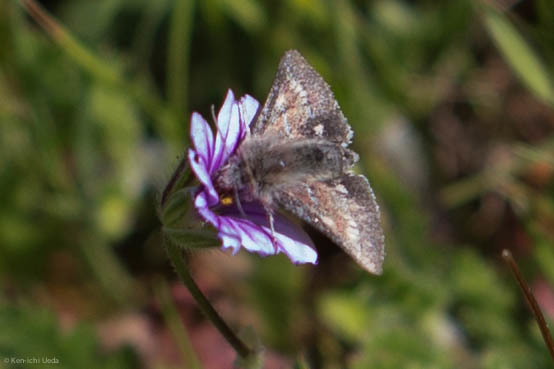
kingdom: Animalia
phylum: Arthropoda
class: Insecta
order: Lepidoptera
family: Noctuidae
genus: Schinia
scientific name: Schinia pulchripennis
